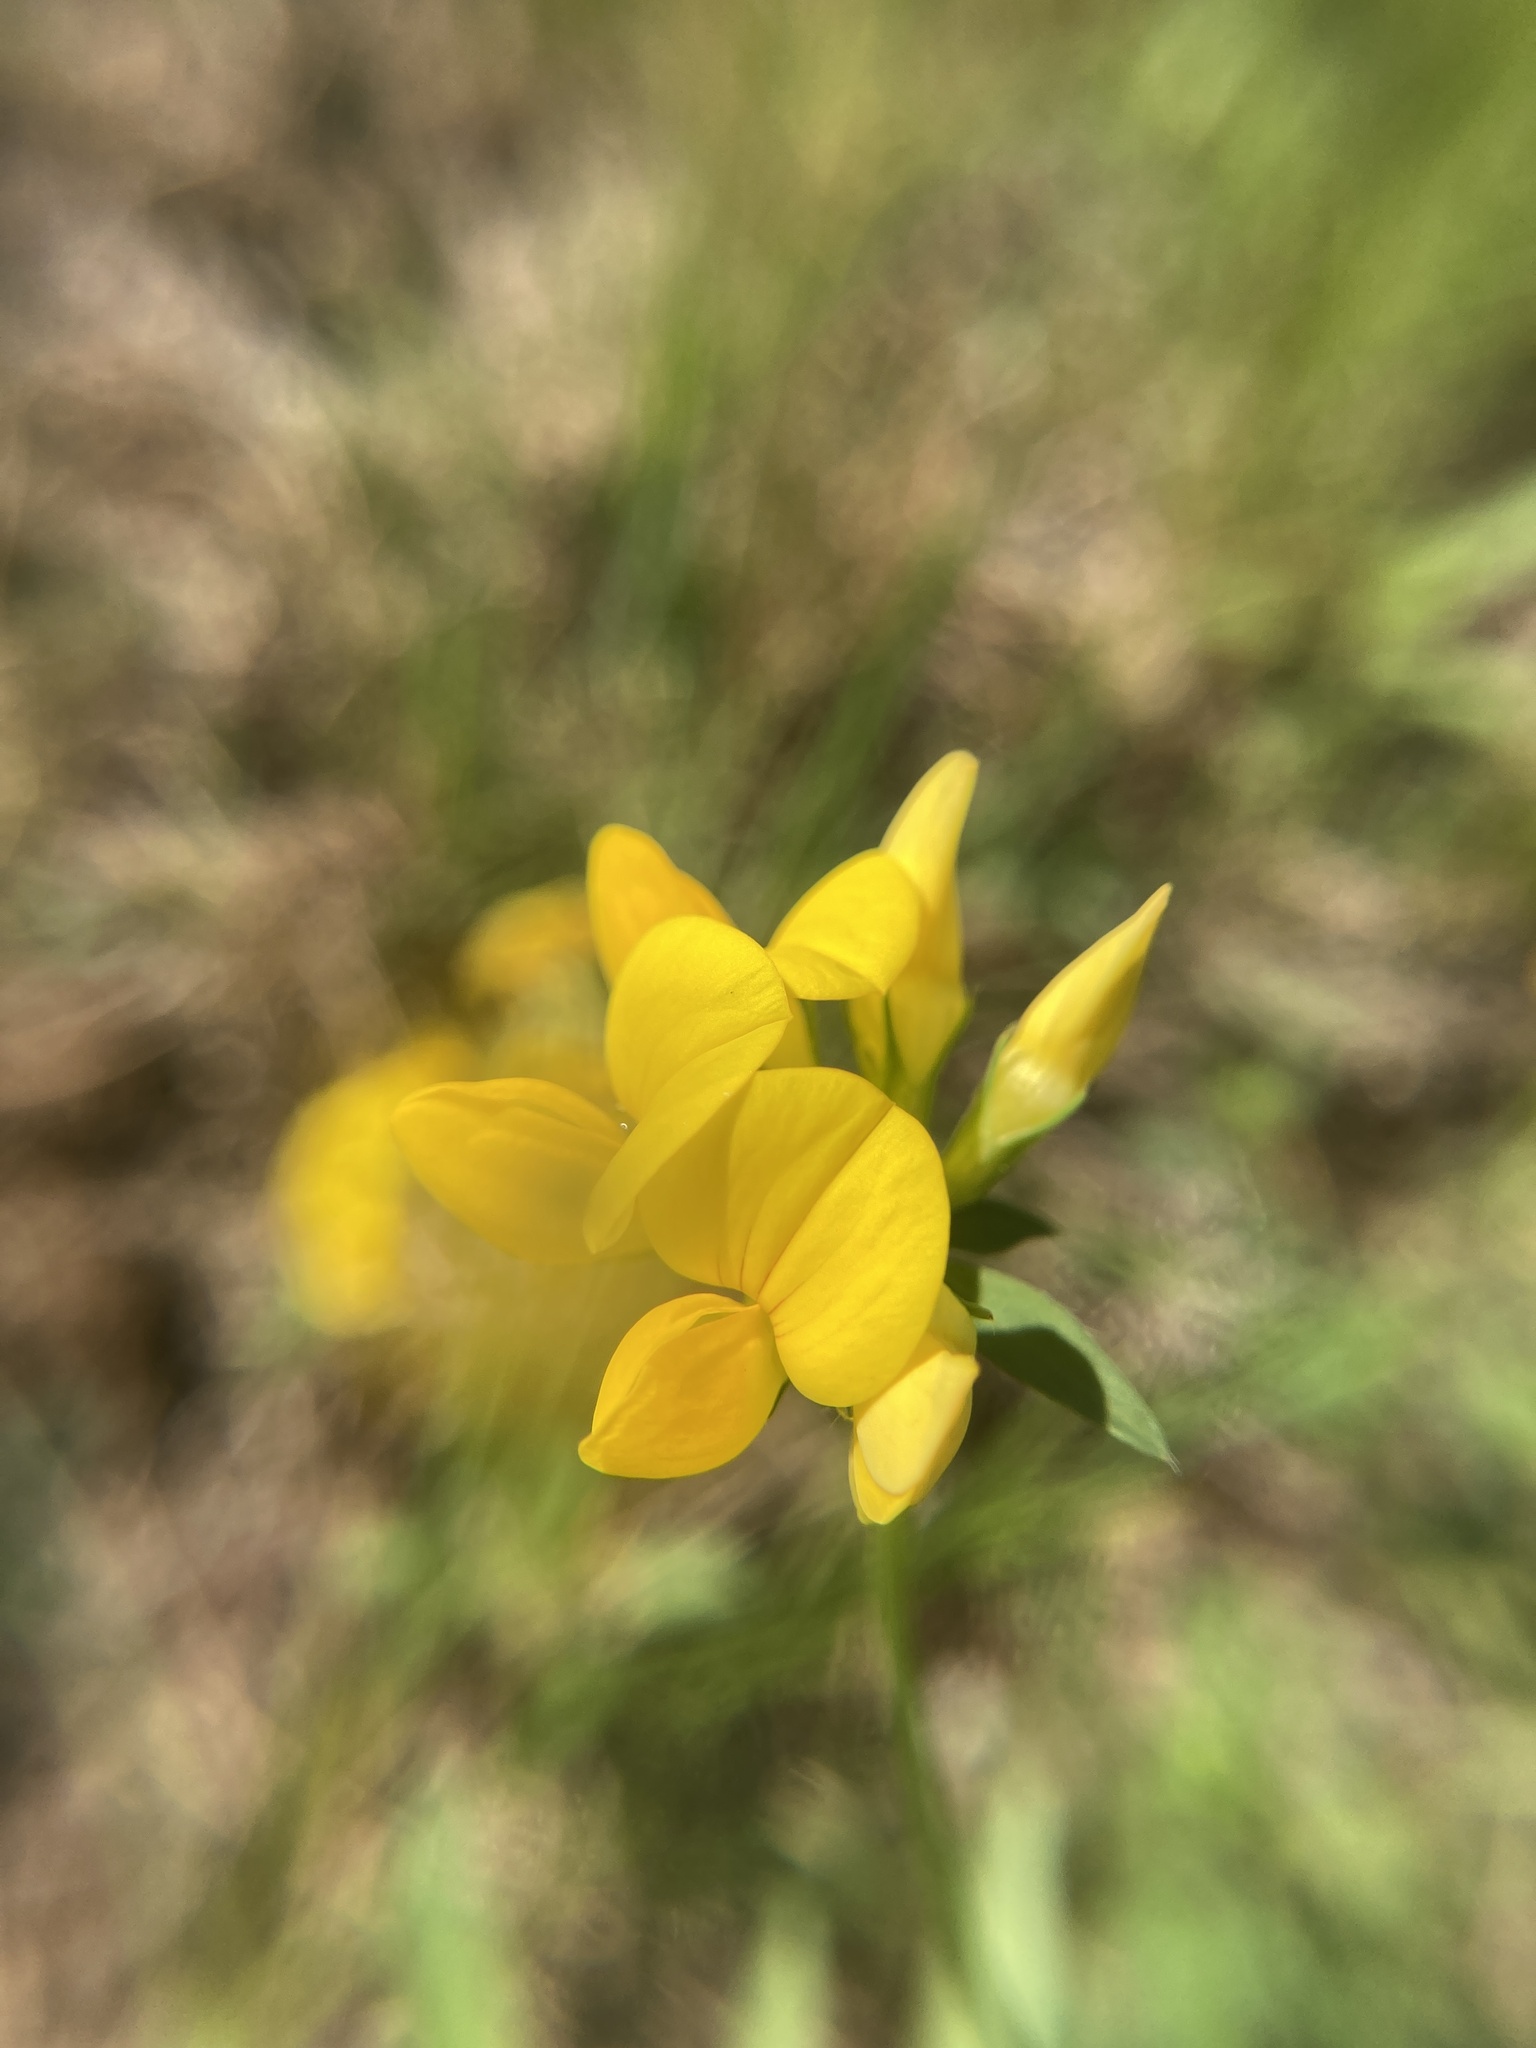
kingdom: Plantae
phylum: Tracheophyta
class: Magnoliopsida
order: Fabales
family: Fabaceae
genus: Lotus
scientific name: Lotus corniculatus
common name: Common bird's-foot-trefoil
